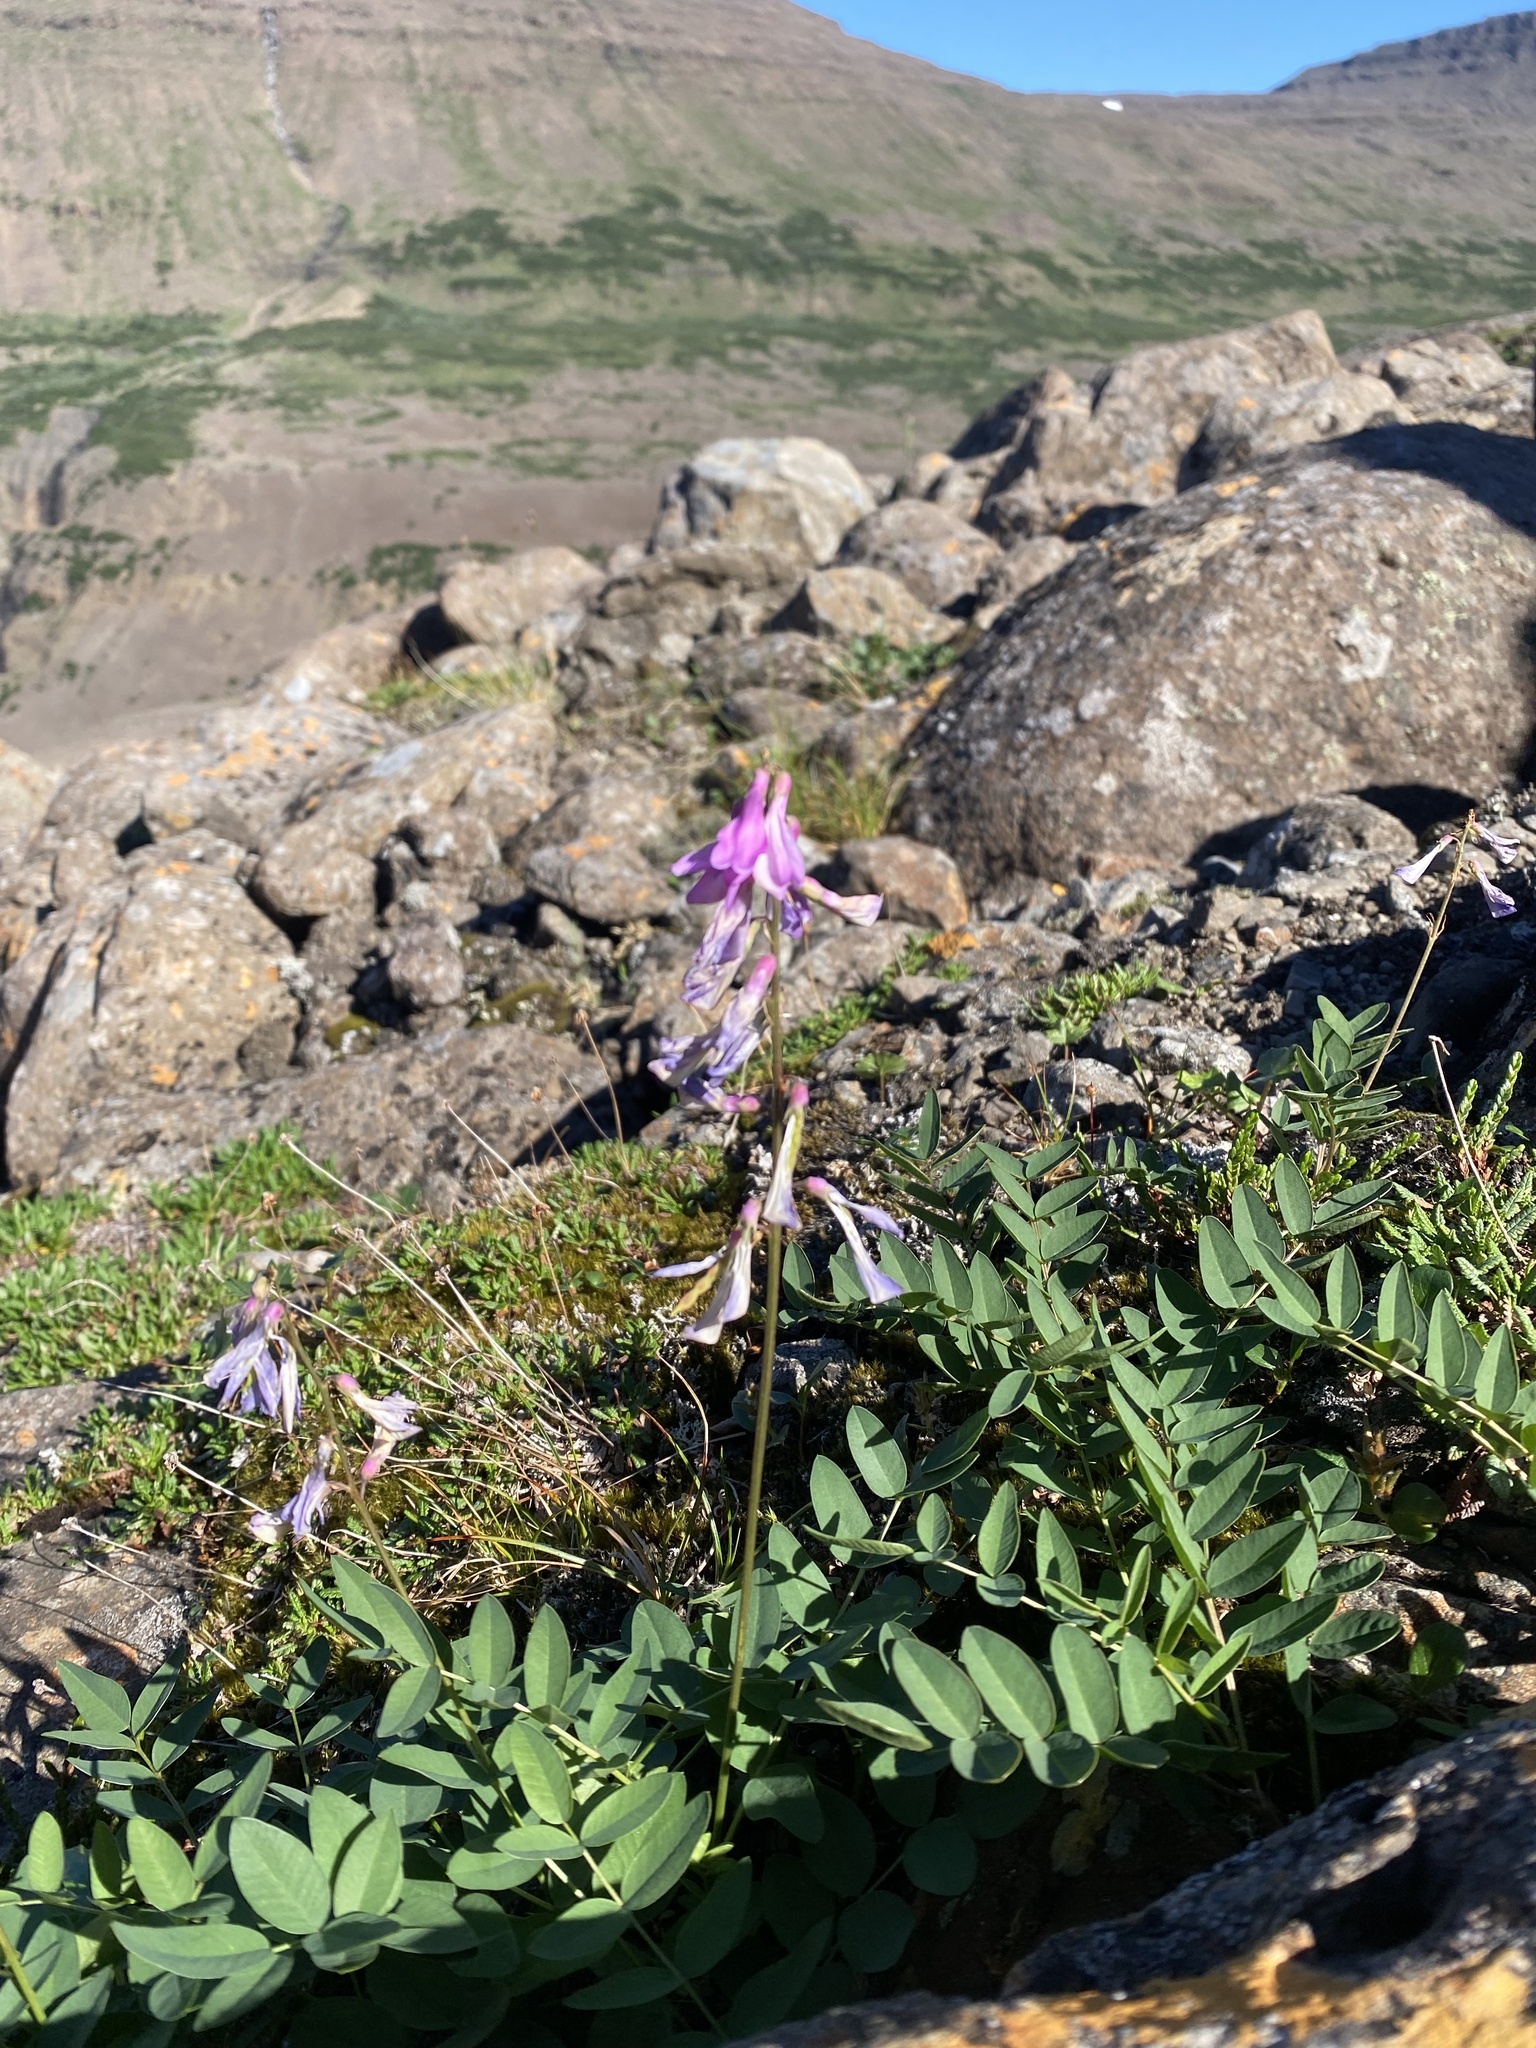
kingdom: Plantae
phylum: Tracheophyta
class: Magnoliopsida
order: Fabales
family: Fabaceae
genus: Hedysarum
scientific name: Hedysarum hedysaroides
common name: Alpine french-honeysuckle
